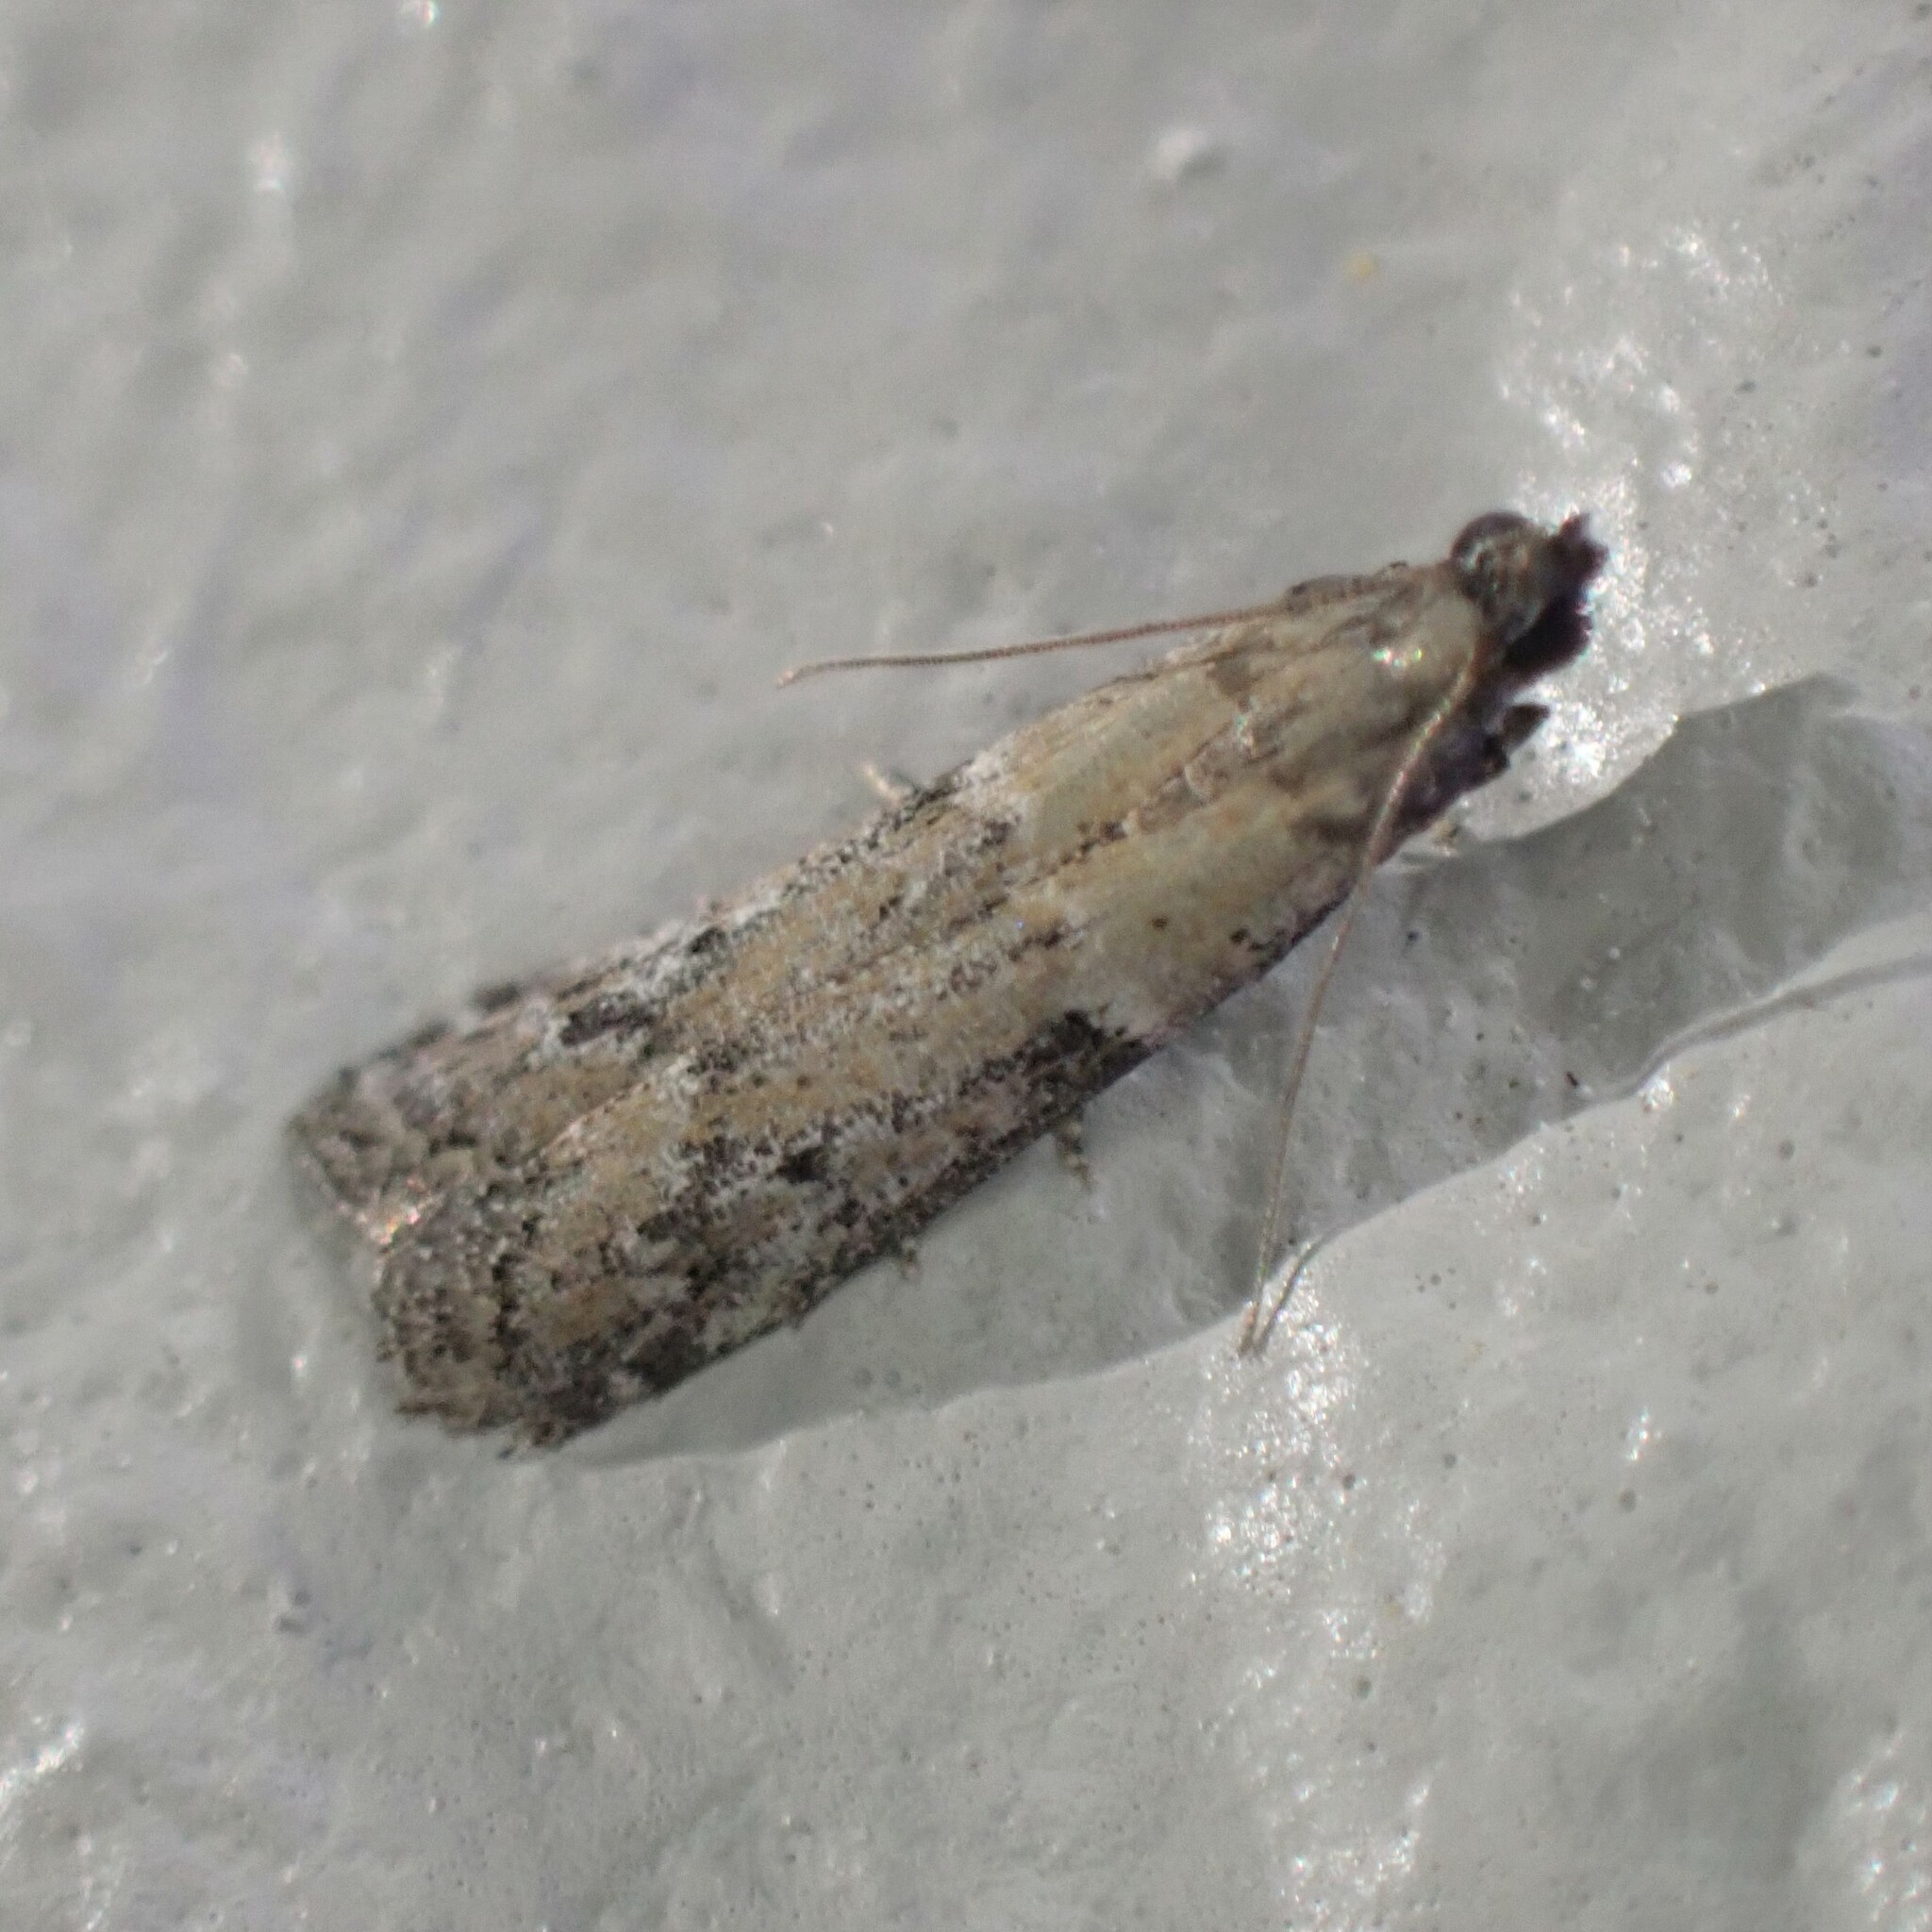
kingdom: Animalia
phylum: Arthropoda
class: Insecta
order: Lepidoptera
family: Pyralidae
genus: Ephestiodes
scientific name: Ephestiodes gilvescentella
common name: Moth
